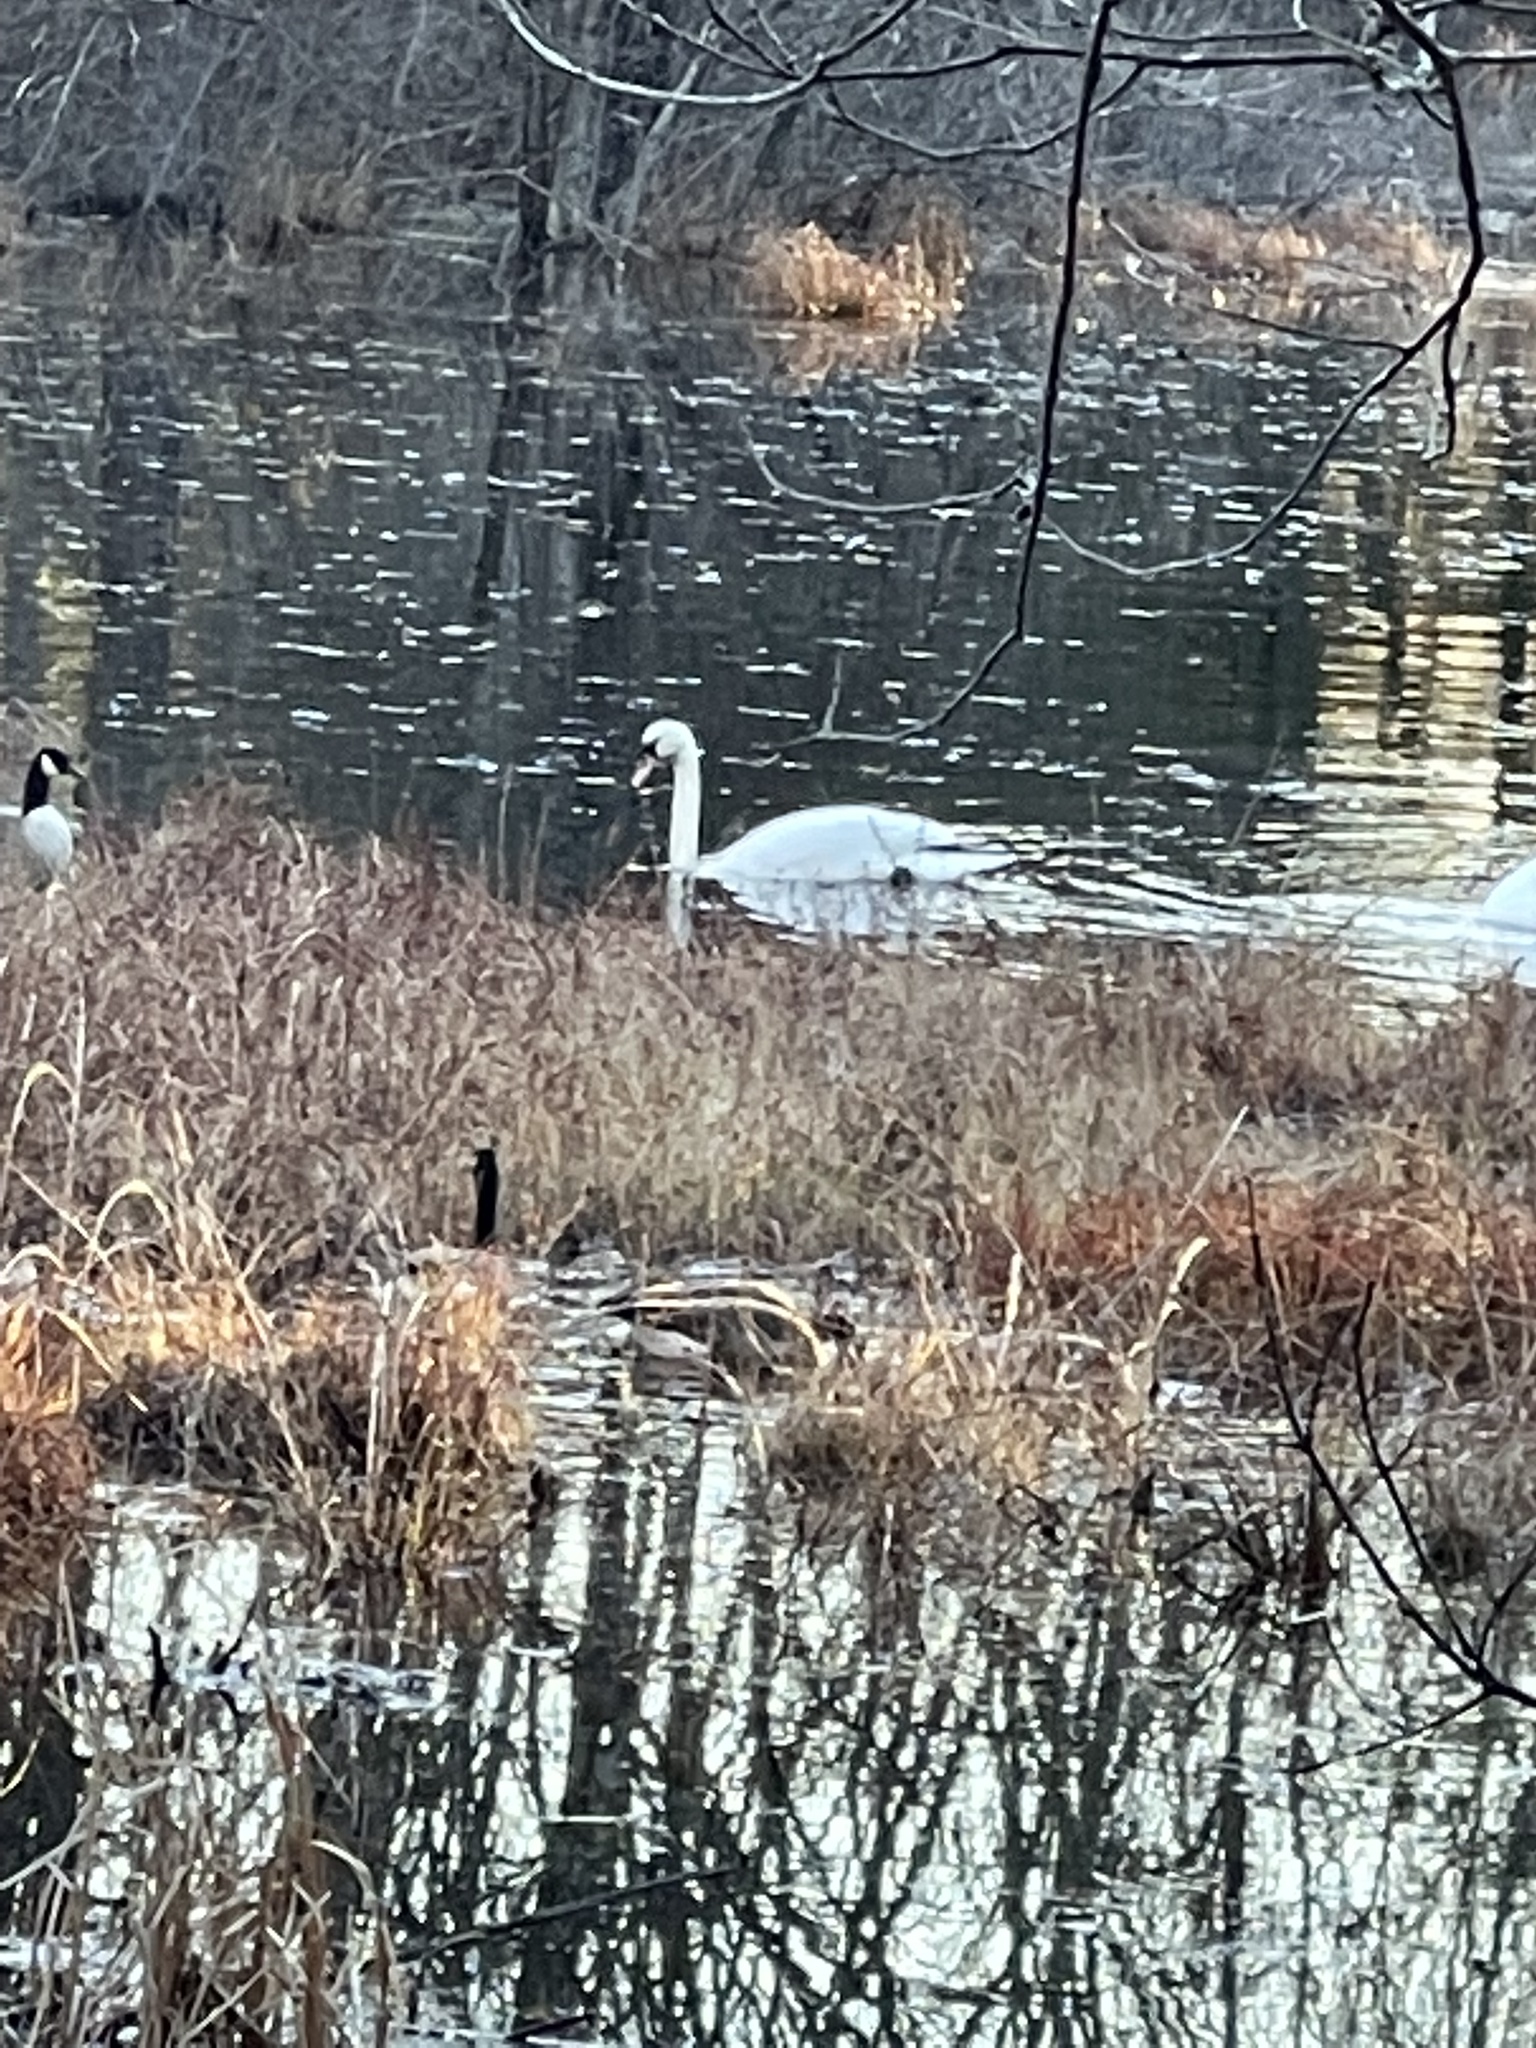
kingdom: Animalia
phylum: Chordata
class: Aves
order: Anseriformes
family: Anatidae
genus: Cygnus
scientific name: Cygnus olor
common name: Mute swan
